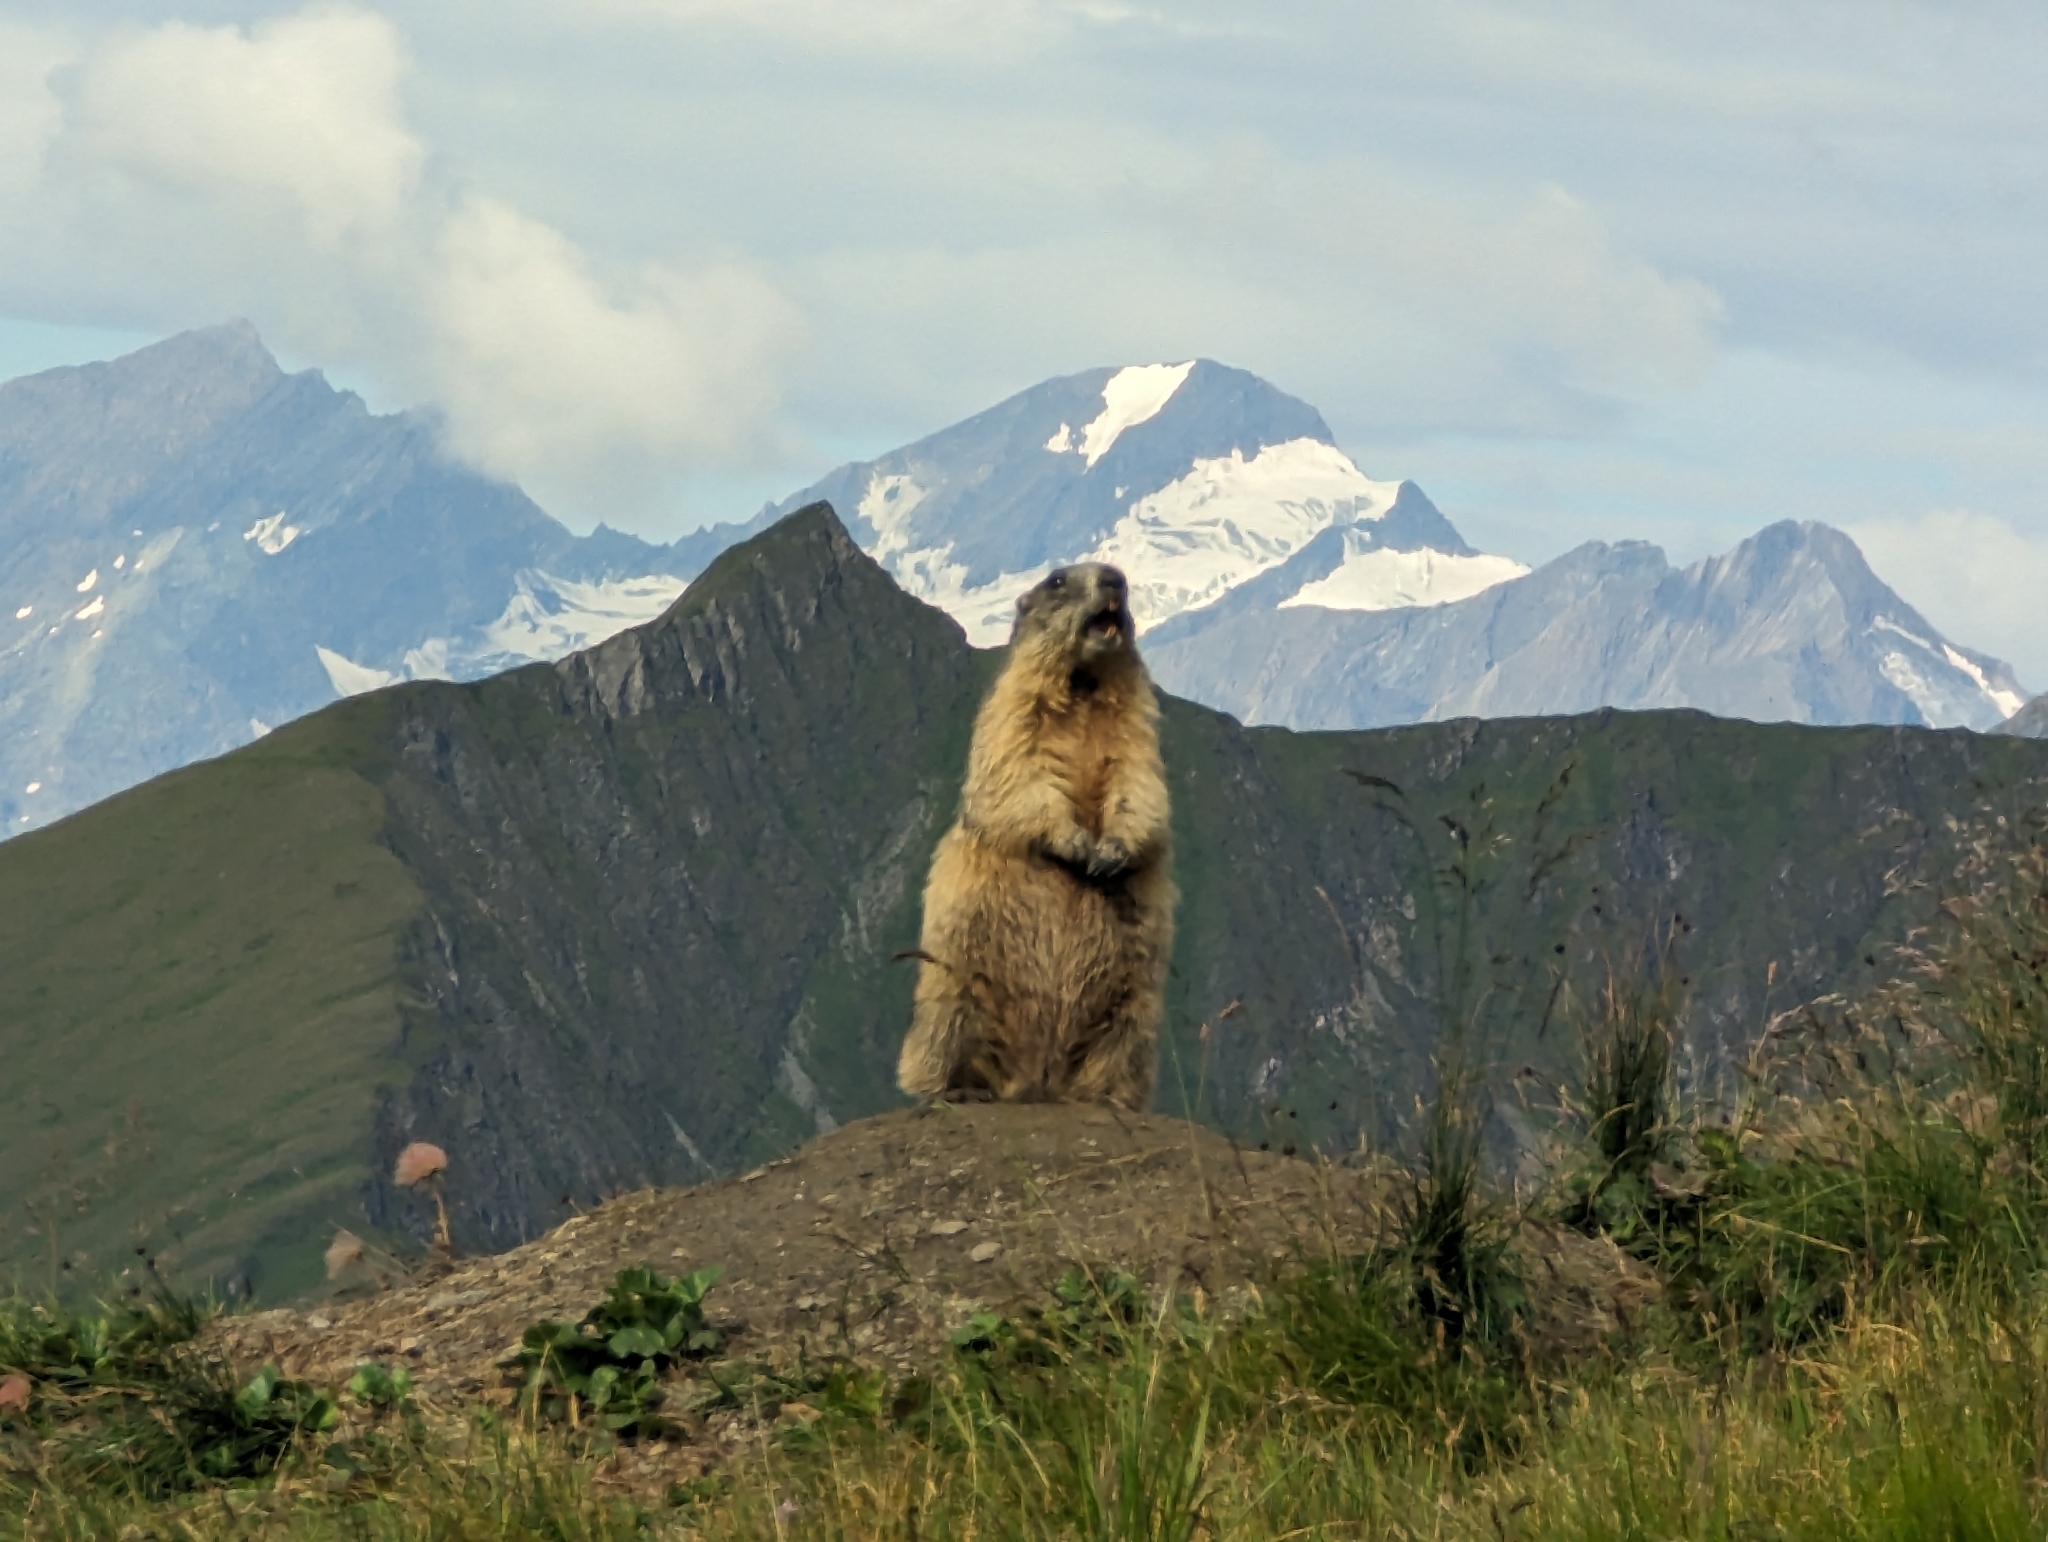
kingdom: Animalia
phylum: Chordata
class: Mammalia
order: Rodentia
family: Sciuridae
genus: Marmota
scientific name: Marmota marmota
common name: Alpine marmot
